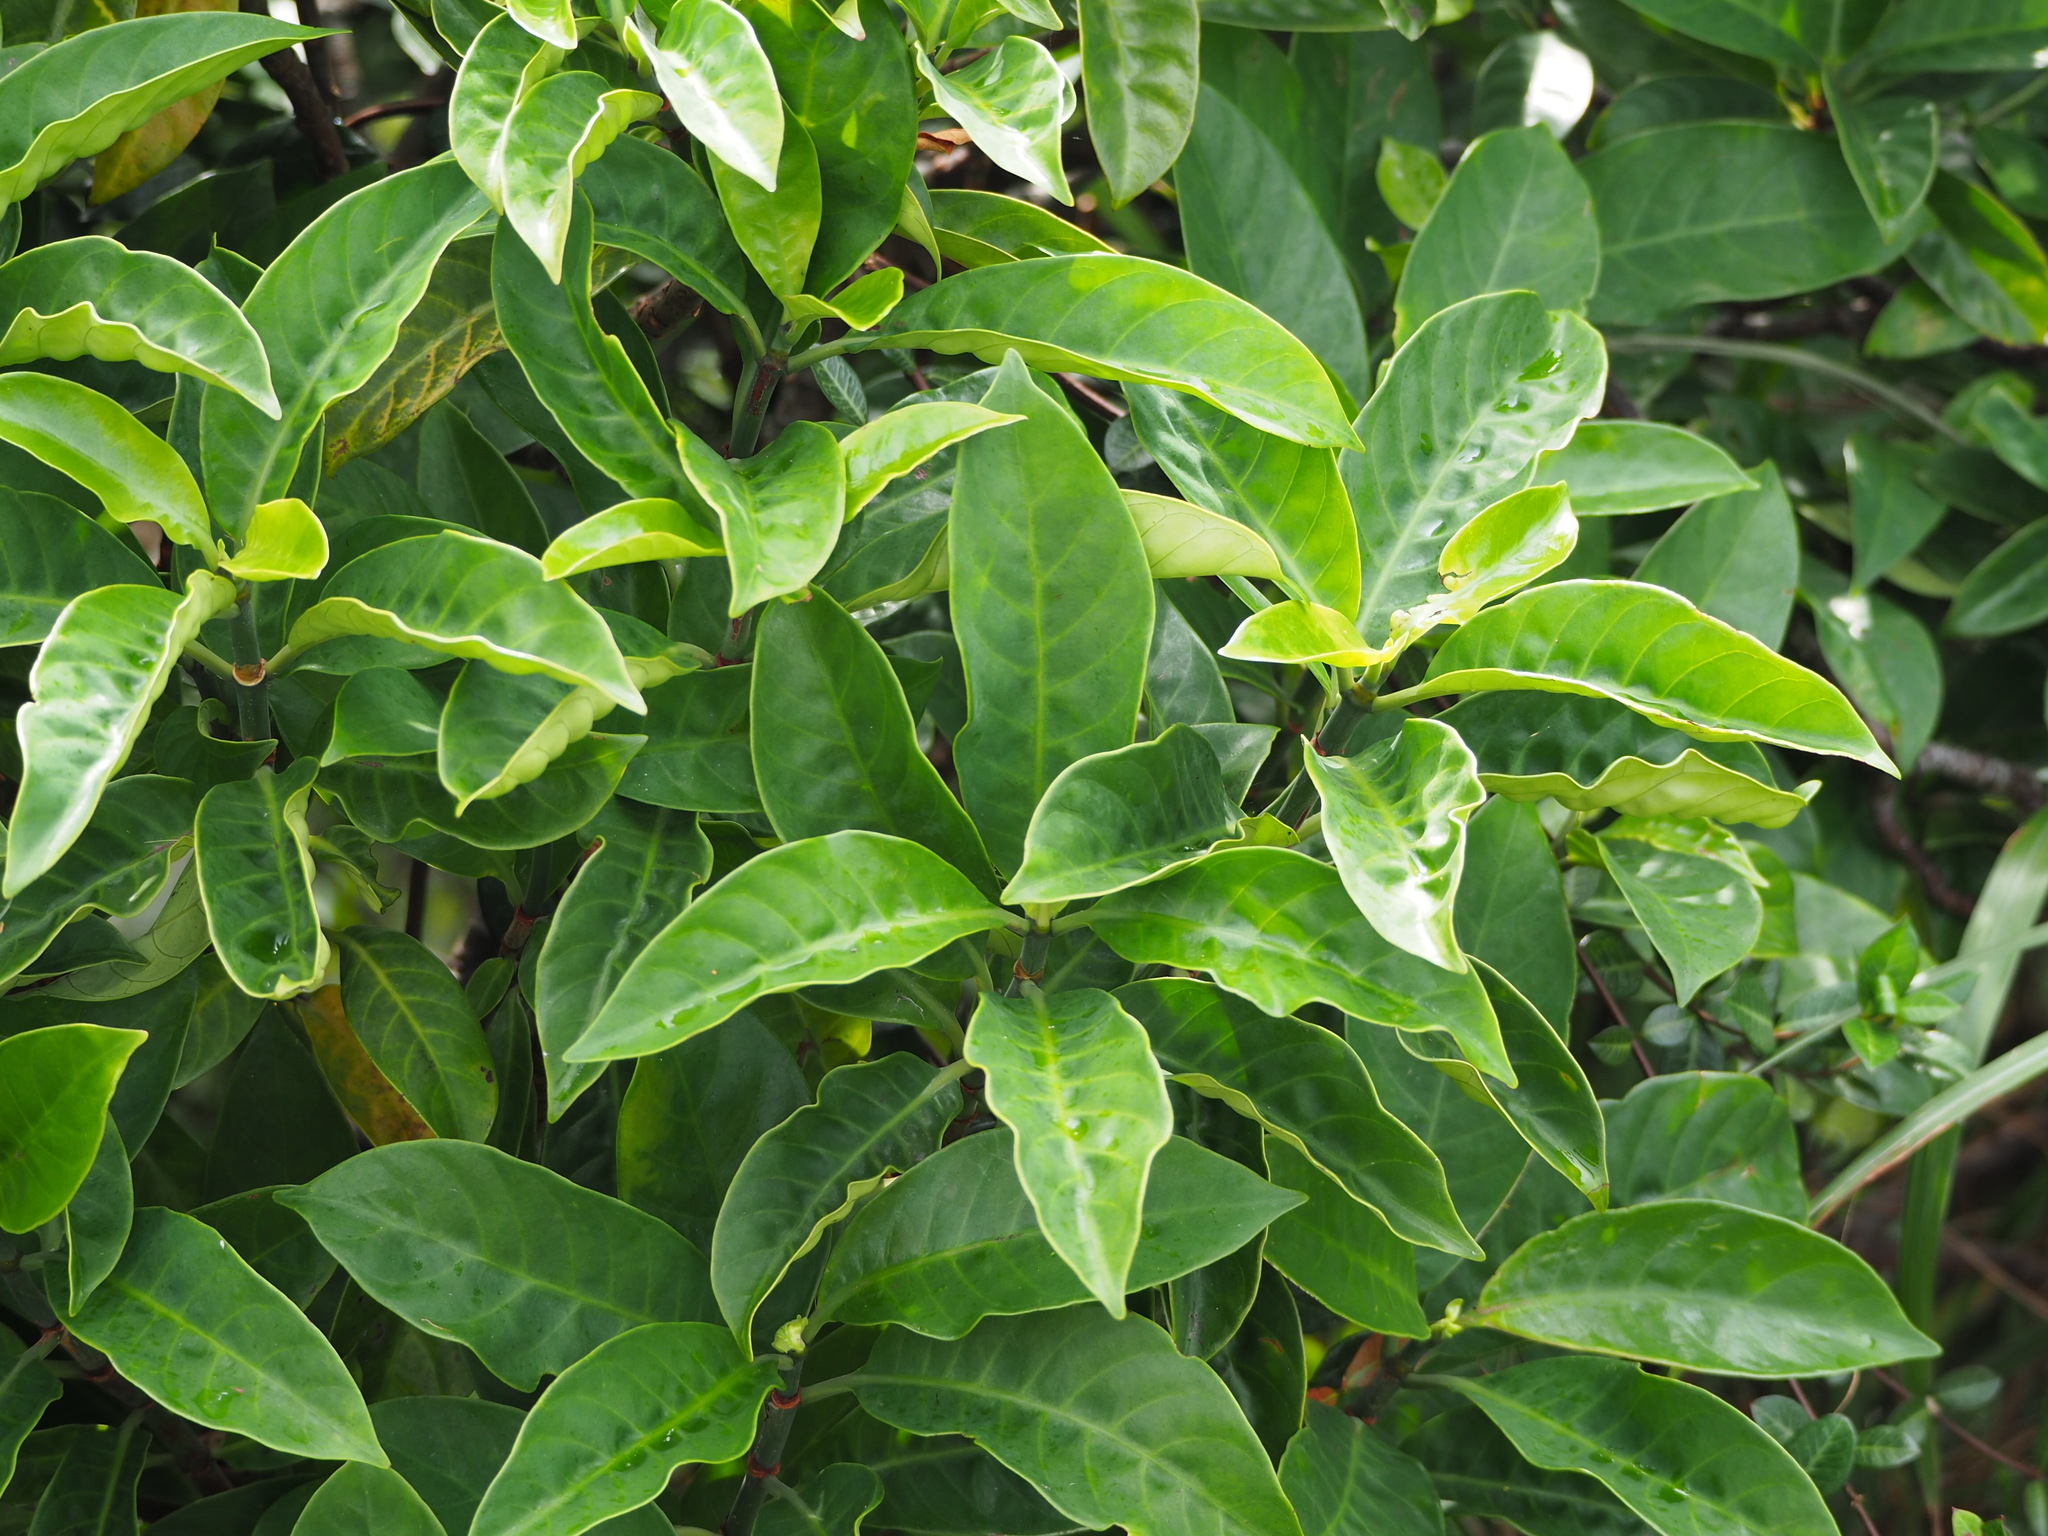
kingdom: Plantae
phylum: Tracheophyta
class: Magnoliopsida
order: Gentianales
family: Rubiaceae
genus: Psychotria
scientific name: Psychotria asiatica
